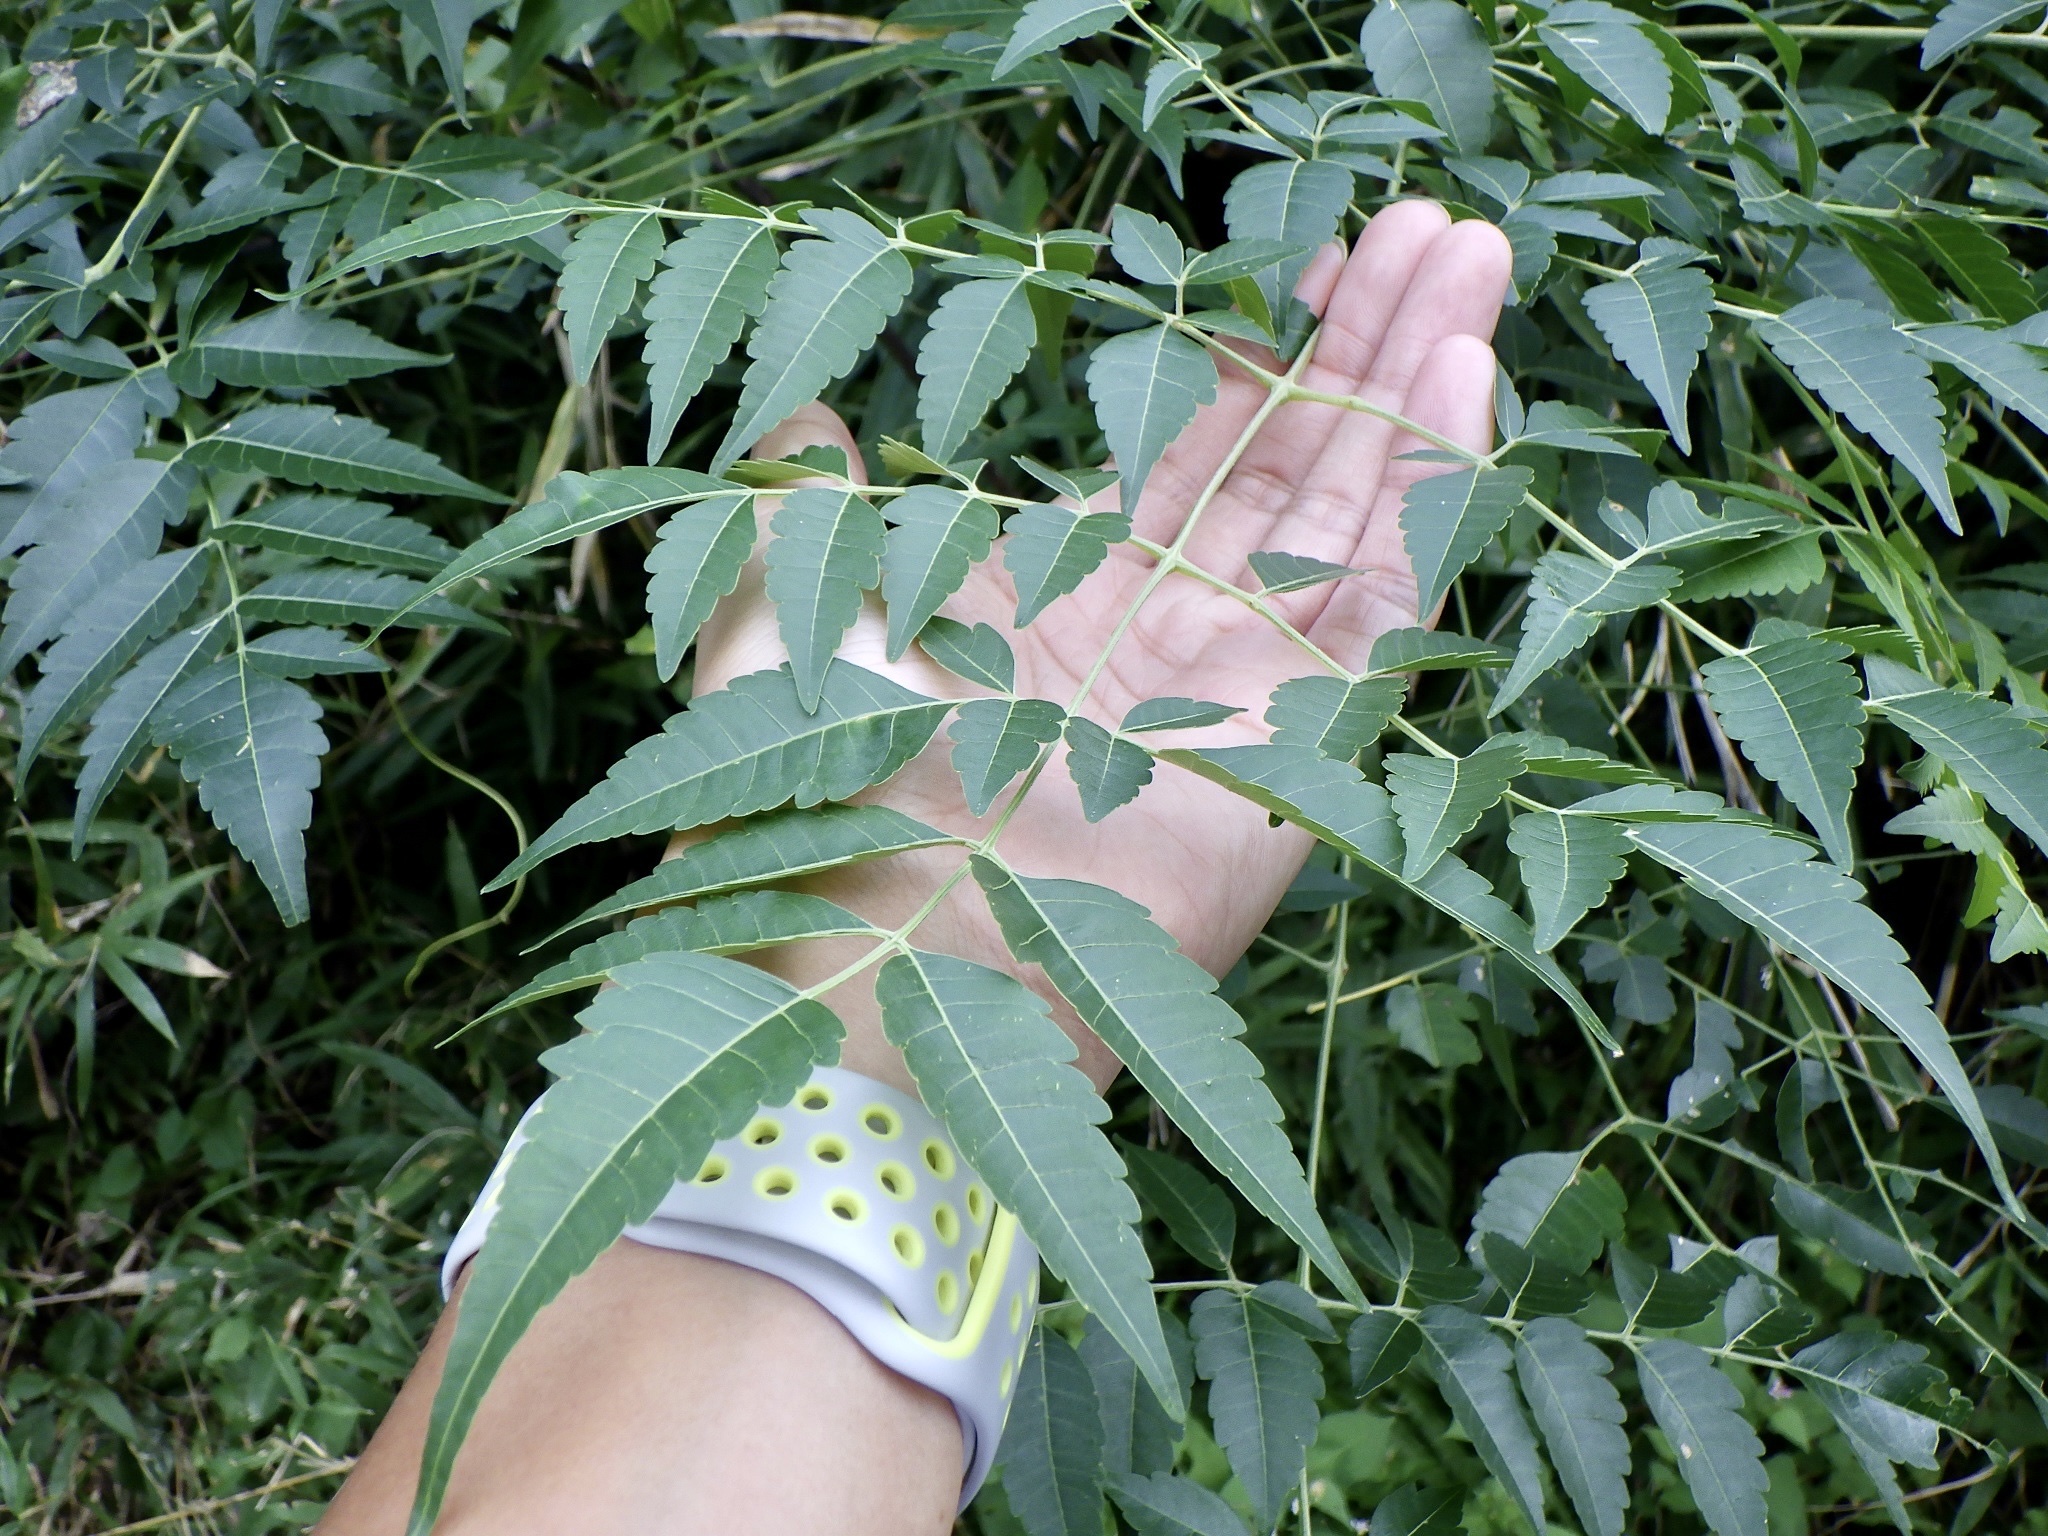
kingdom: Plantae
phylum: Tracheophyta
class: Magnoliopsida
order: Sapindales
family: Meliaceae
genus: Melia
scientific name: Melia azedarach
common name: Chinaberrytree
